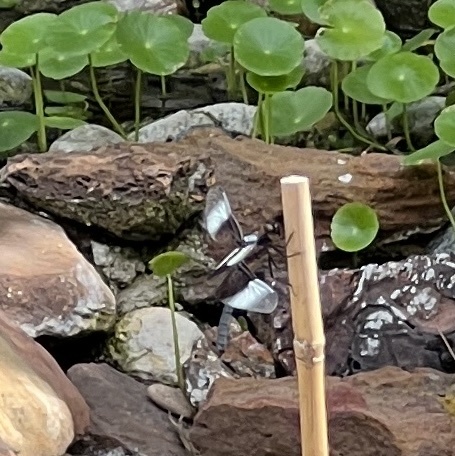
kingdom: Animalia
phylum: Arthropoda
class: Insecta
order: Odonata
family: Libellulidae
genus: Libellula
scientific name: Libellula luctuosa
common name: Widow skimmer
